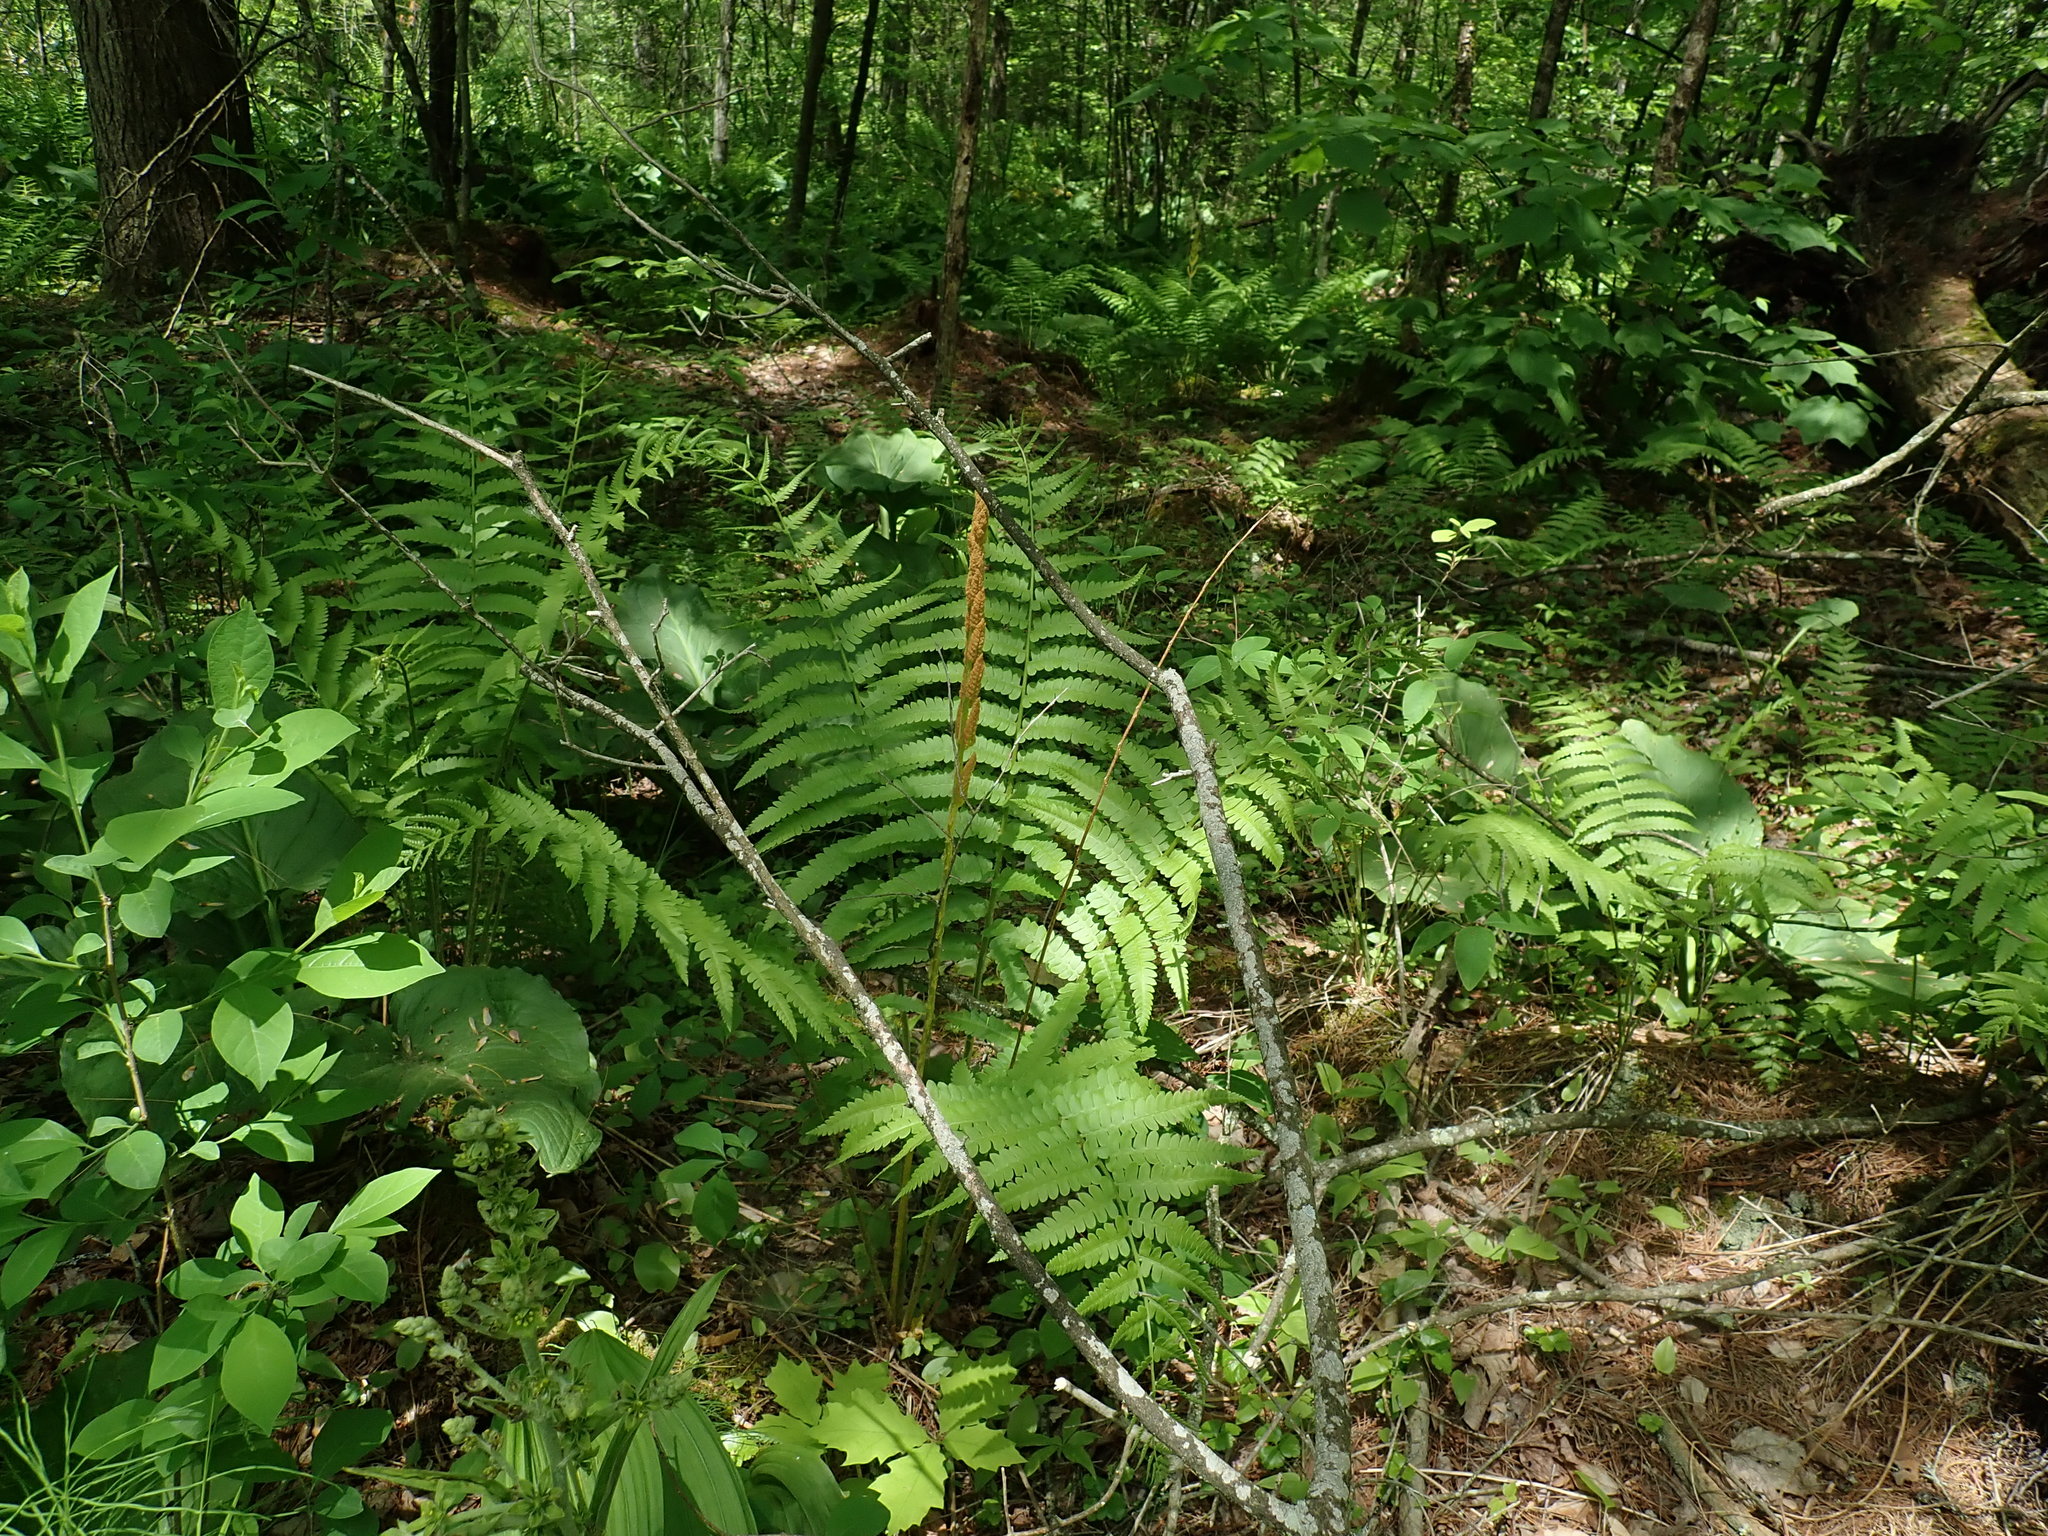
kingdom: Plantae
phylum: Tracheophyta
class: Polypodiopsida
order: Osmundales
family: Osmundaceae
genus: Osmundastrum
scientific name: Osmundastrum cinnamomeum
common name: Cinnamon fern
